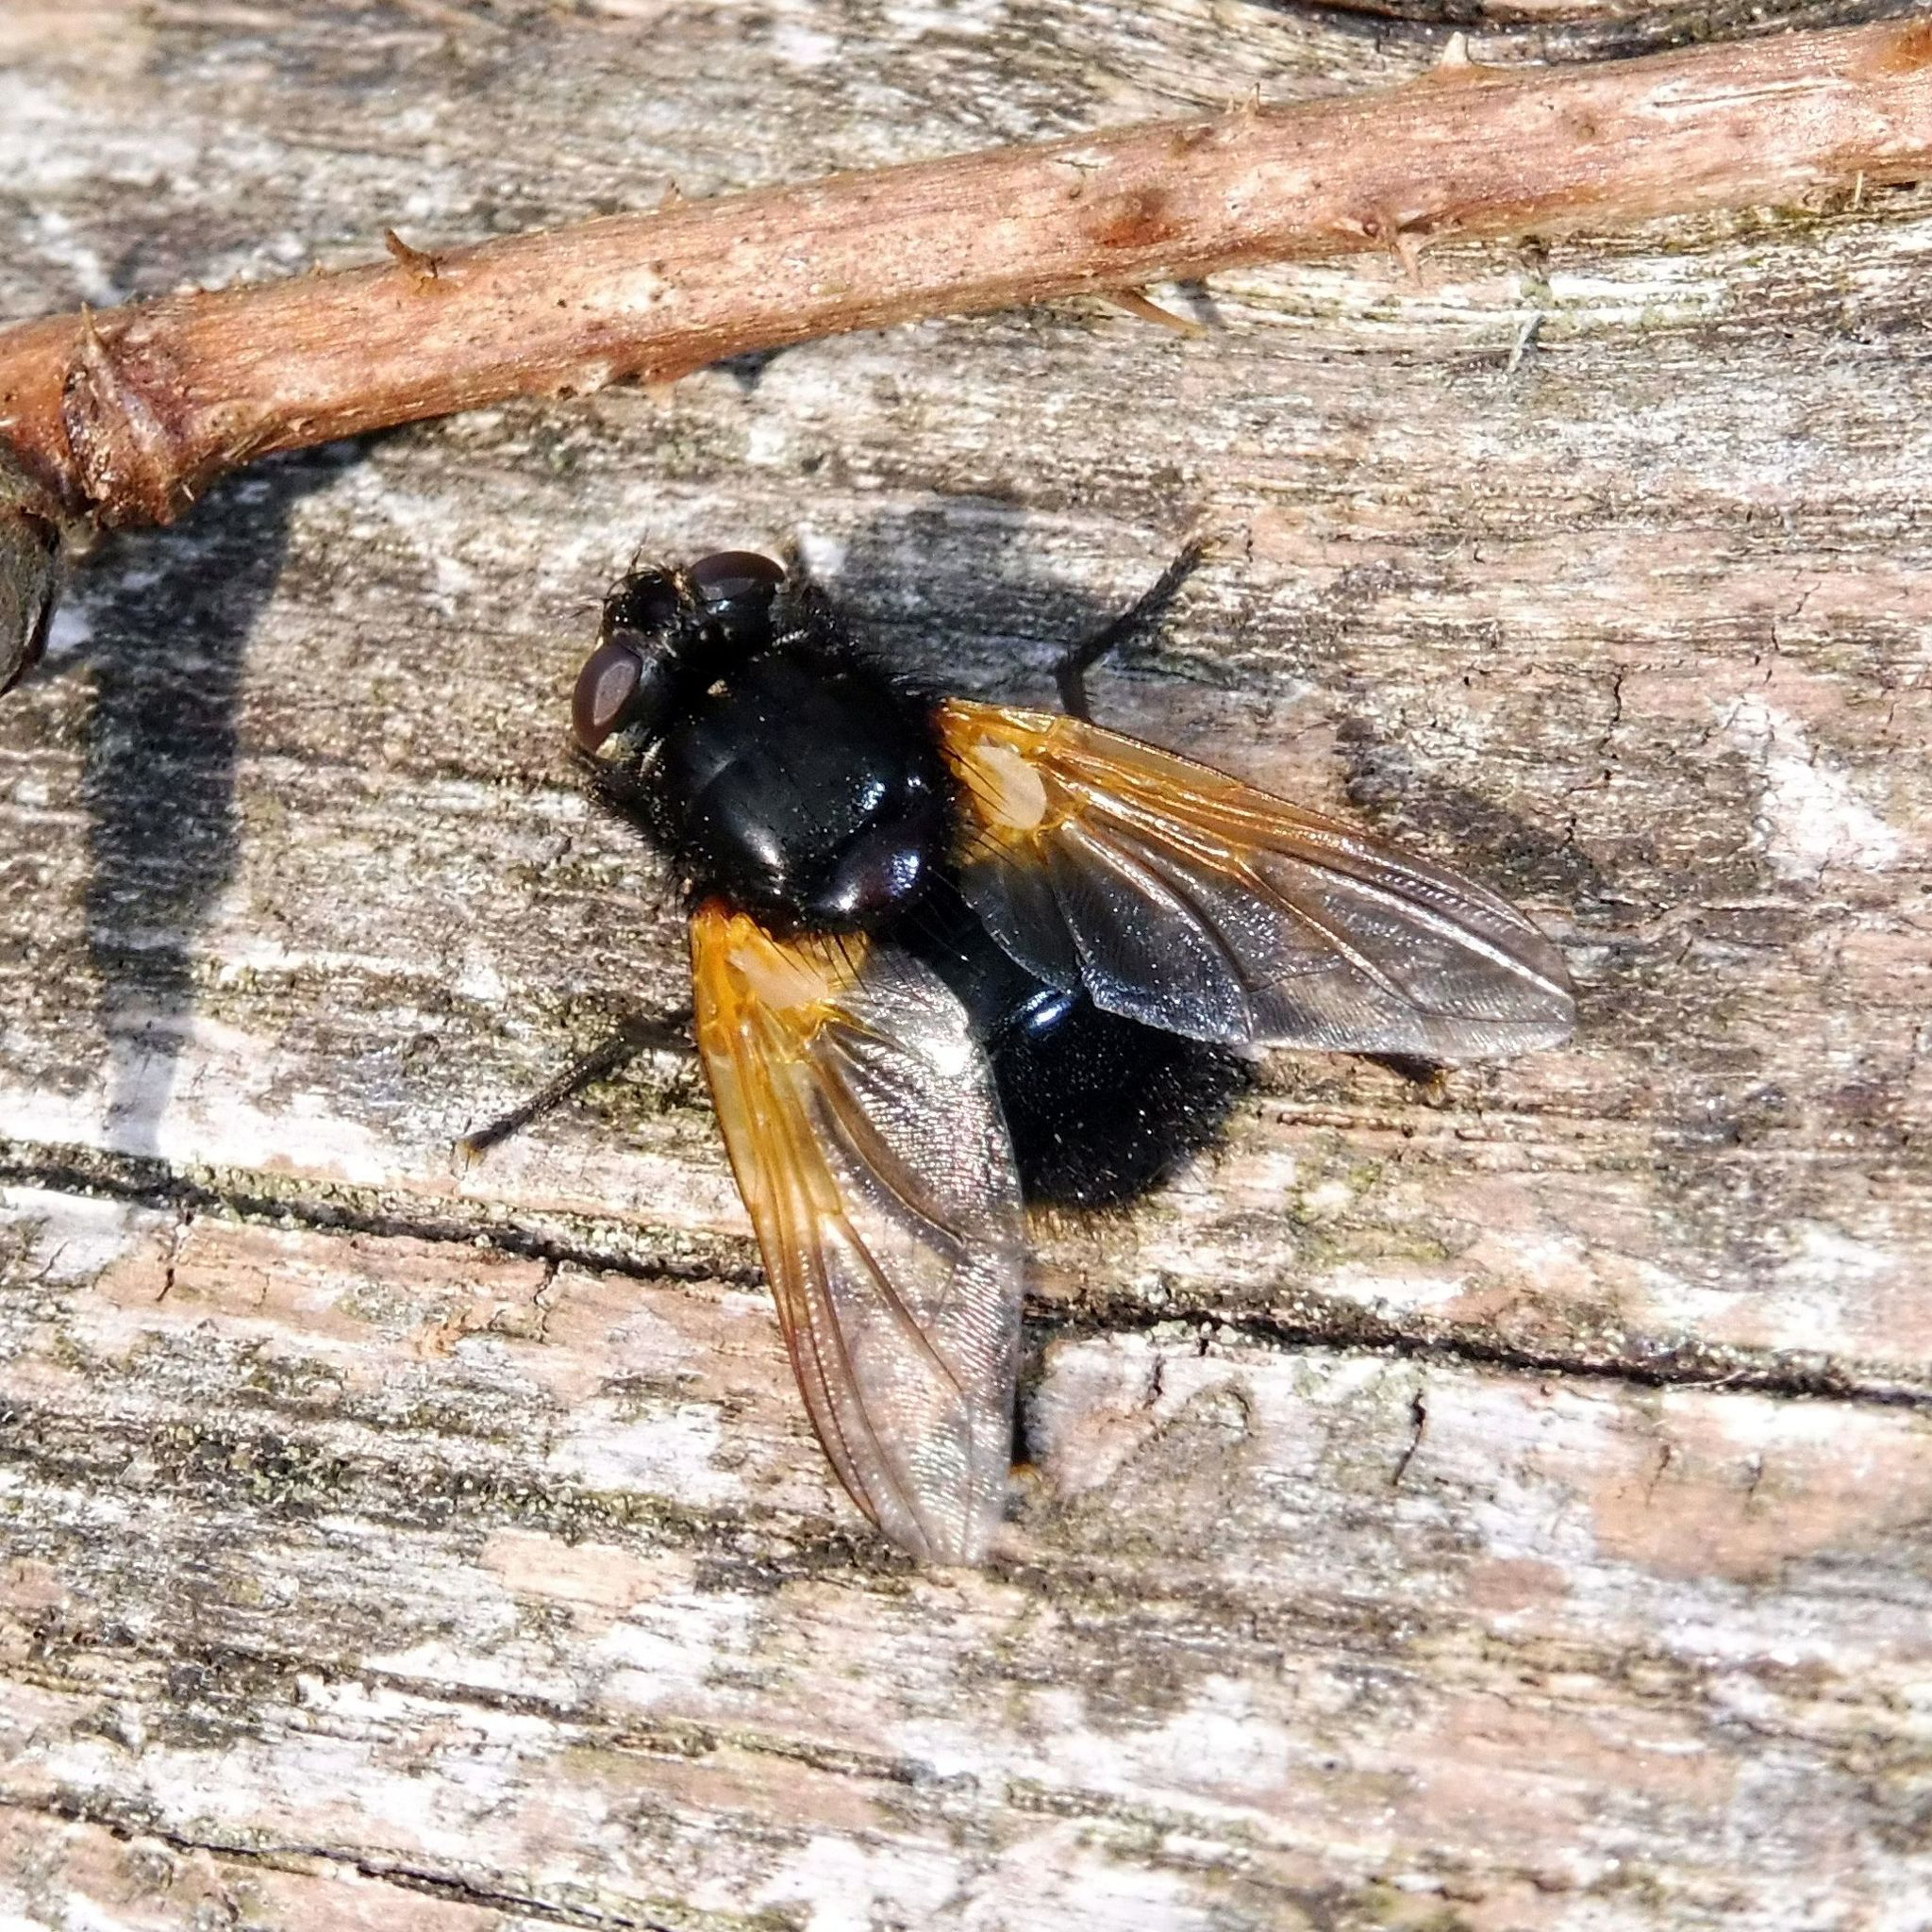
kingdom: Animalia
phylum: Arthropoda
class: Insecta
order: Diptera
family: Muscidae
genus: Mesembrina
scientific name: Mesembrina meridiana
